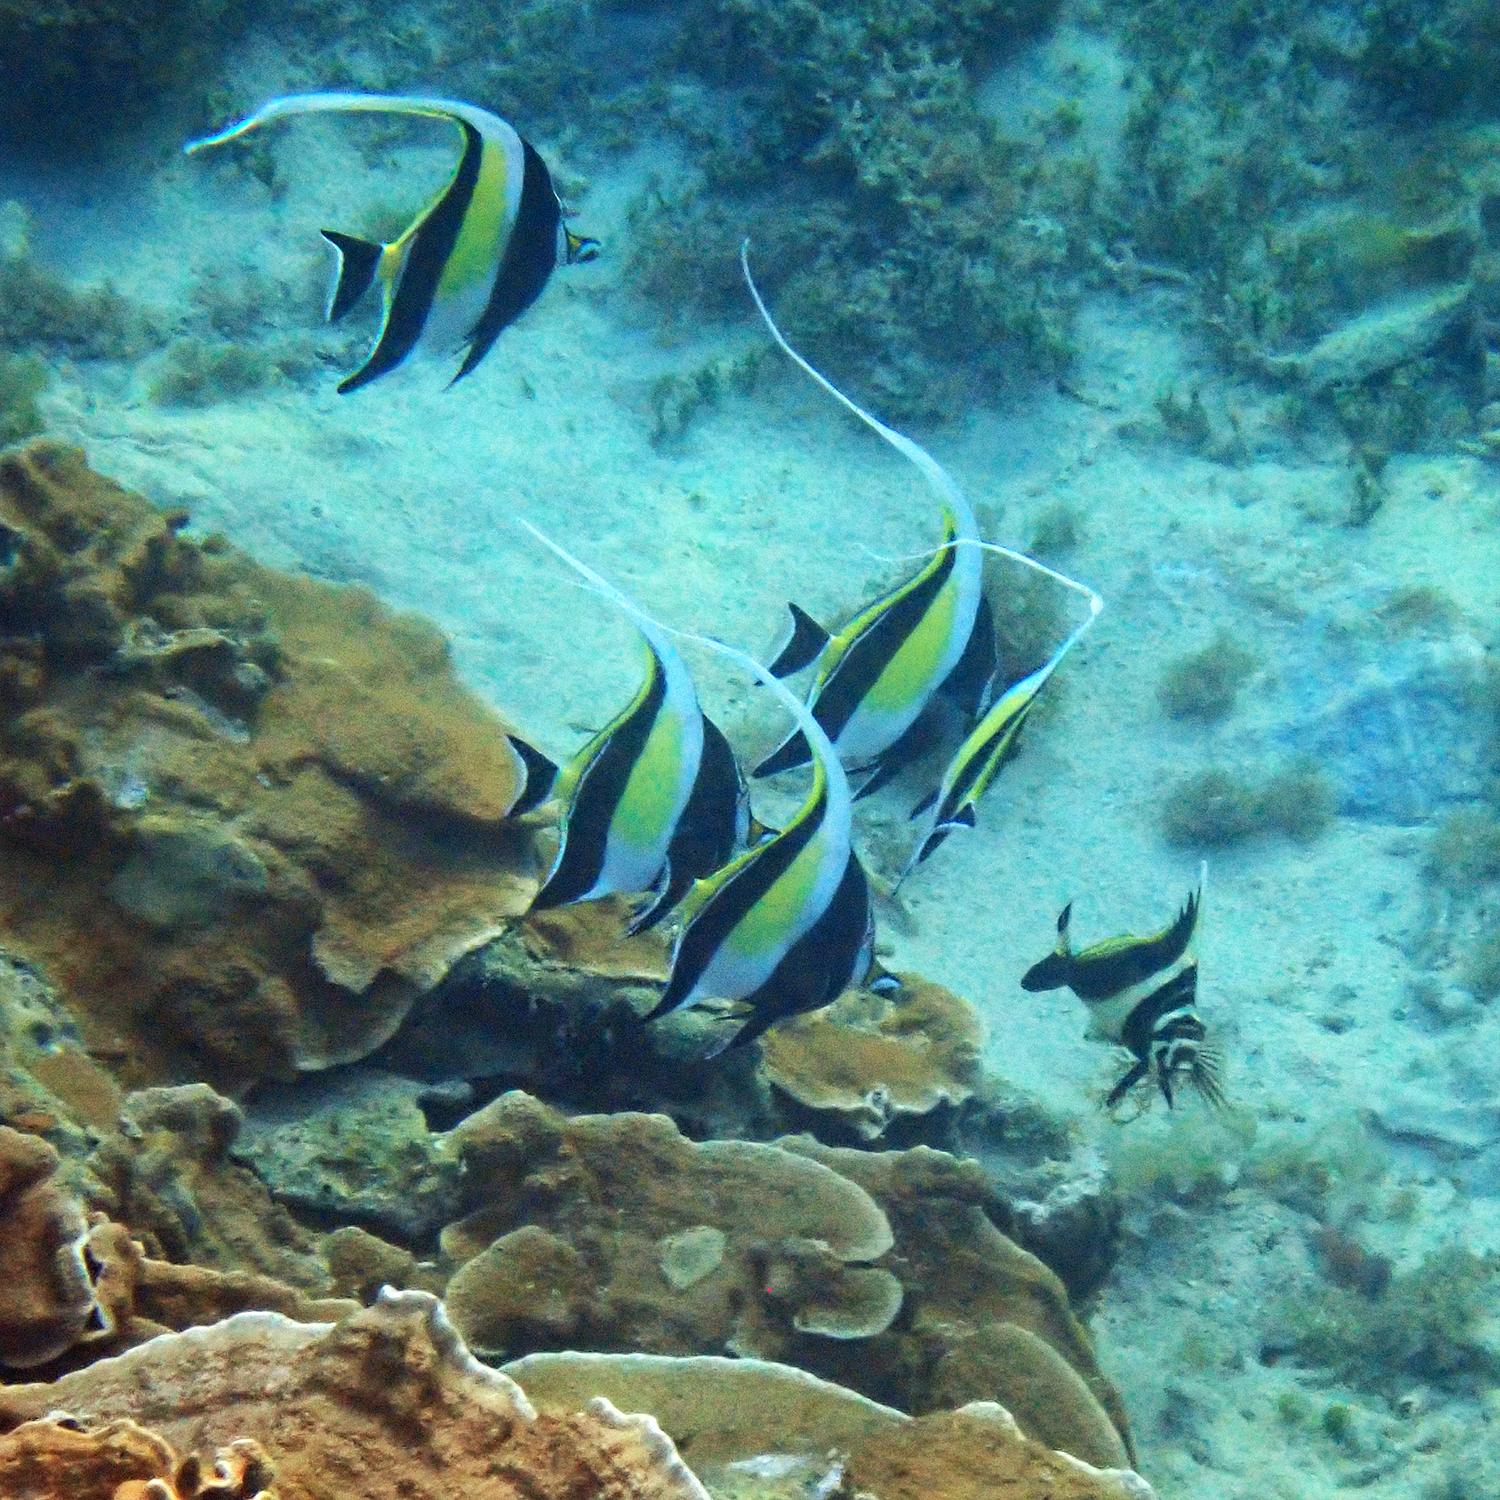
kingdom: Animalia
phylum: Chordata
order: Perciformes
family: Zanclidae
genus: Zanclus
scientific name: Zanclus cornutus
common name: Moorish idol
